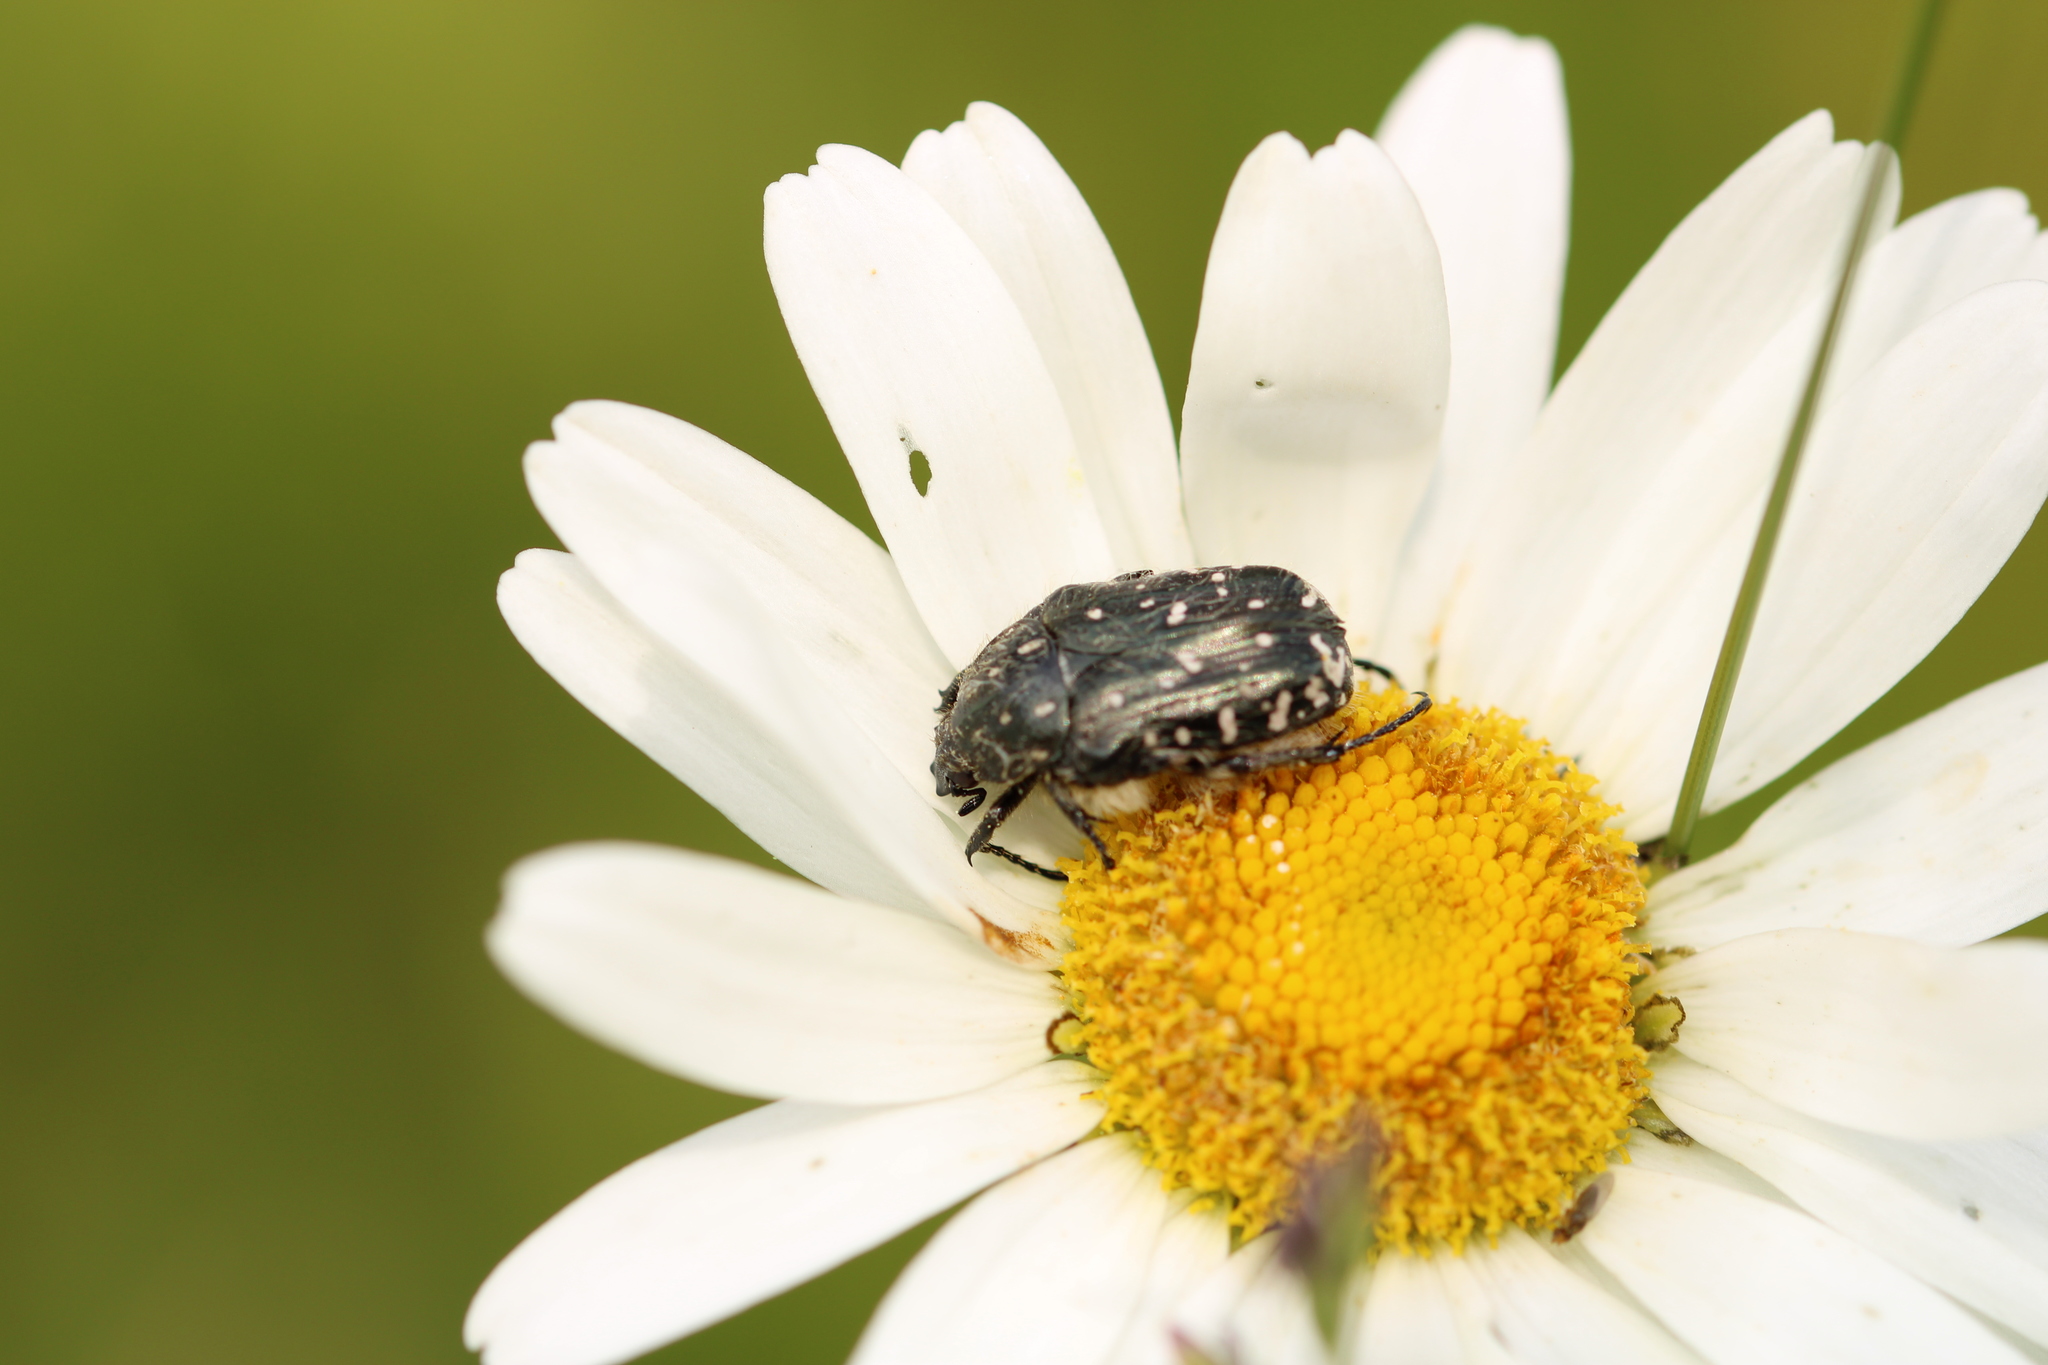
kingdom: Animalia
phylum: Arthropoda
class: Insecta
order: Coleoptera
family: Scarabaeidae
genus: Oxythyrea
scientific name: Oxythyrea funesta
